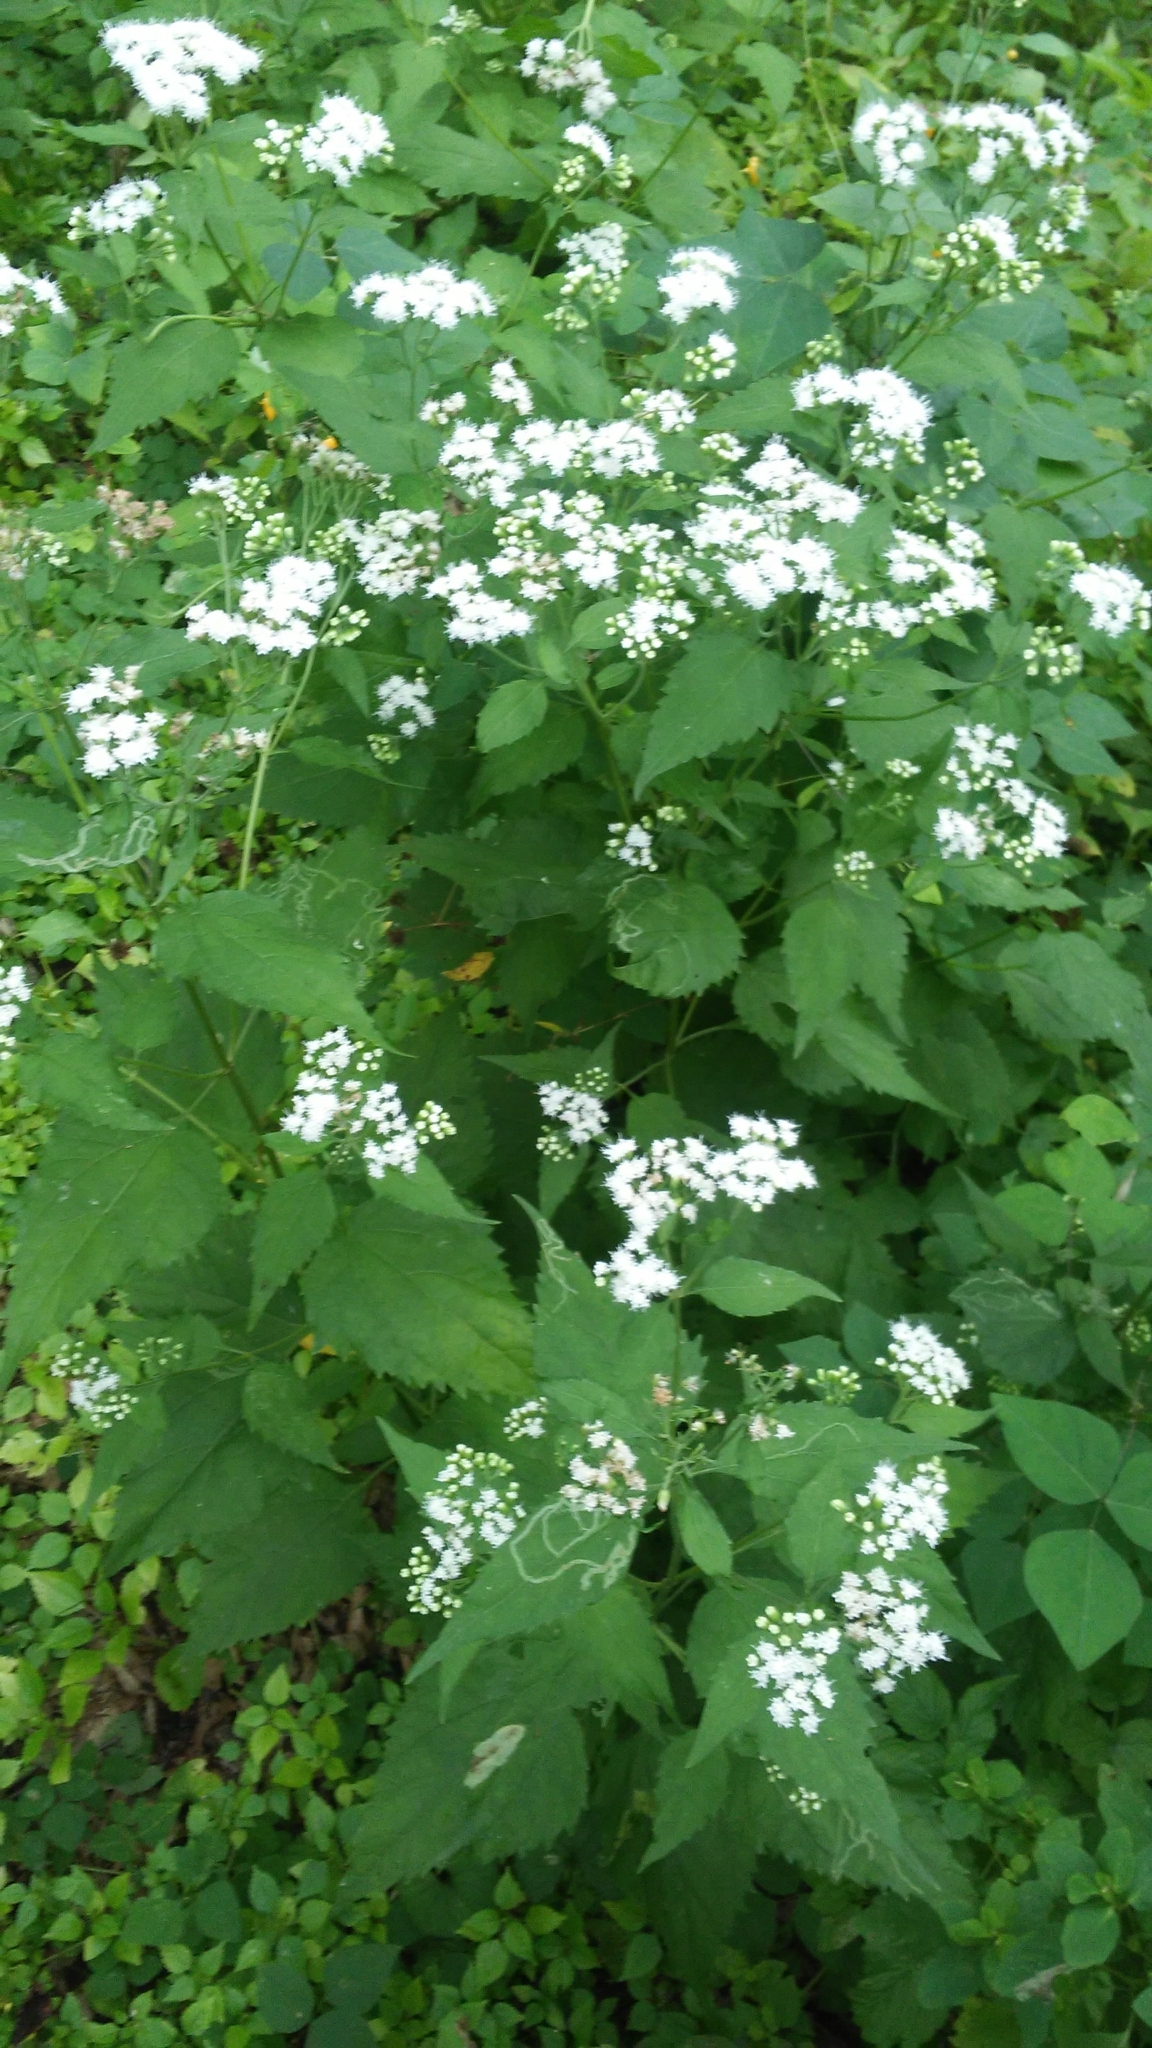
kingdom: Plantae
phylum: Tracheophyta
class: Magnoliopsida
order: Asterales
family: Asteraceae
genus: Ageratina
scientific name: Ageratina altissima
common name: White snakeroot
